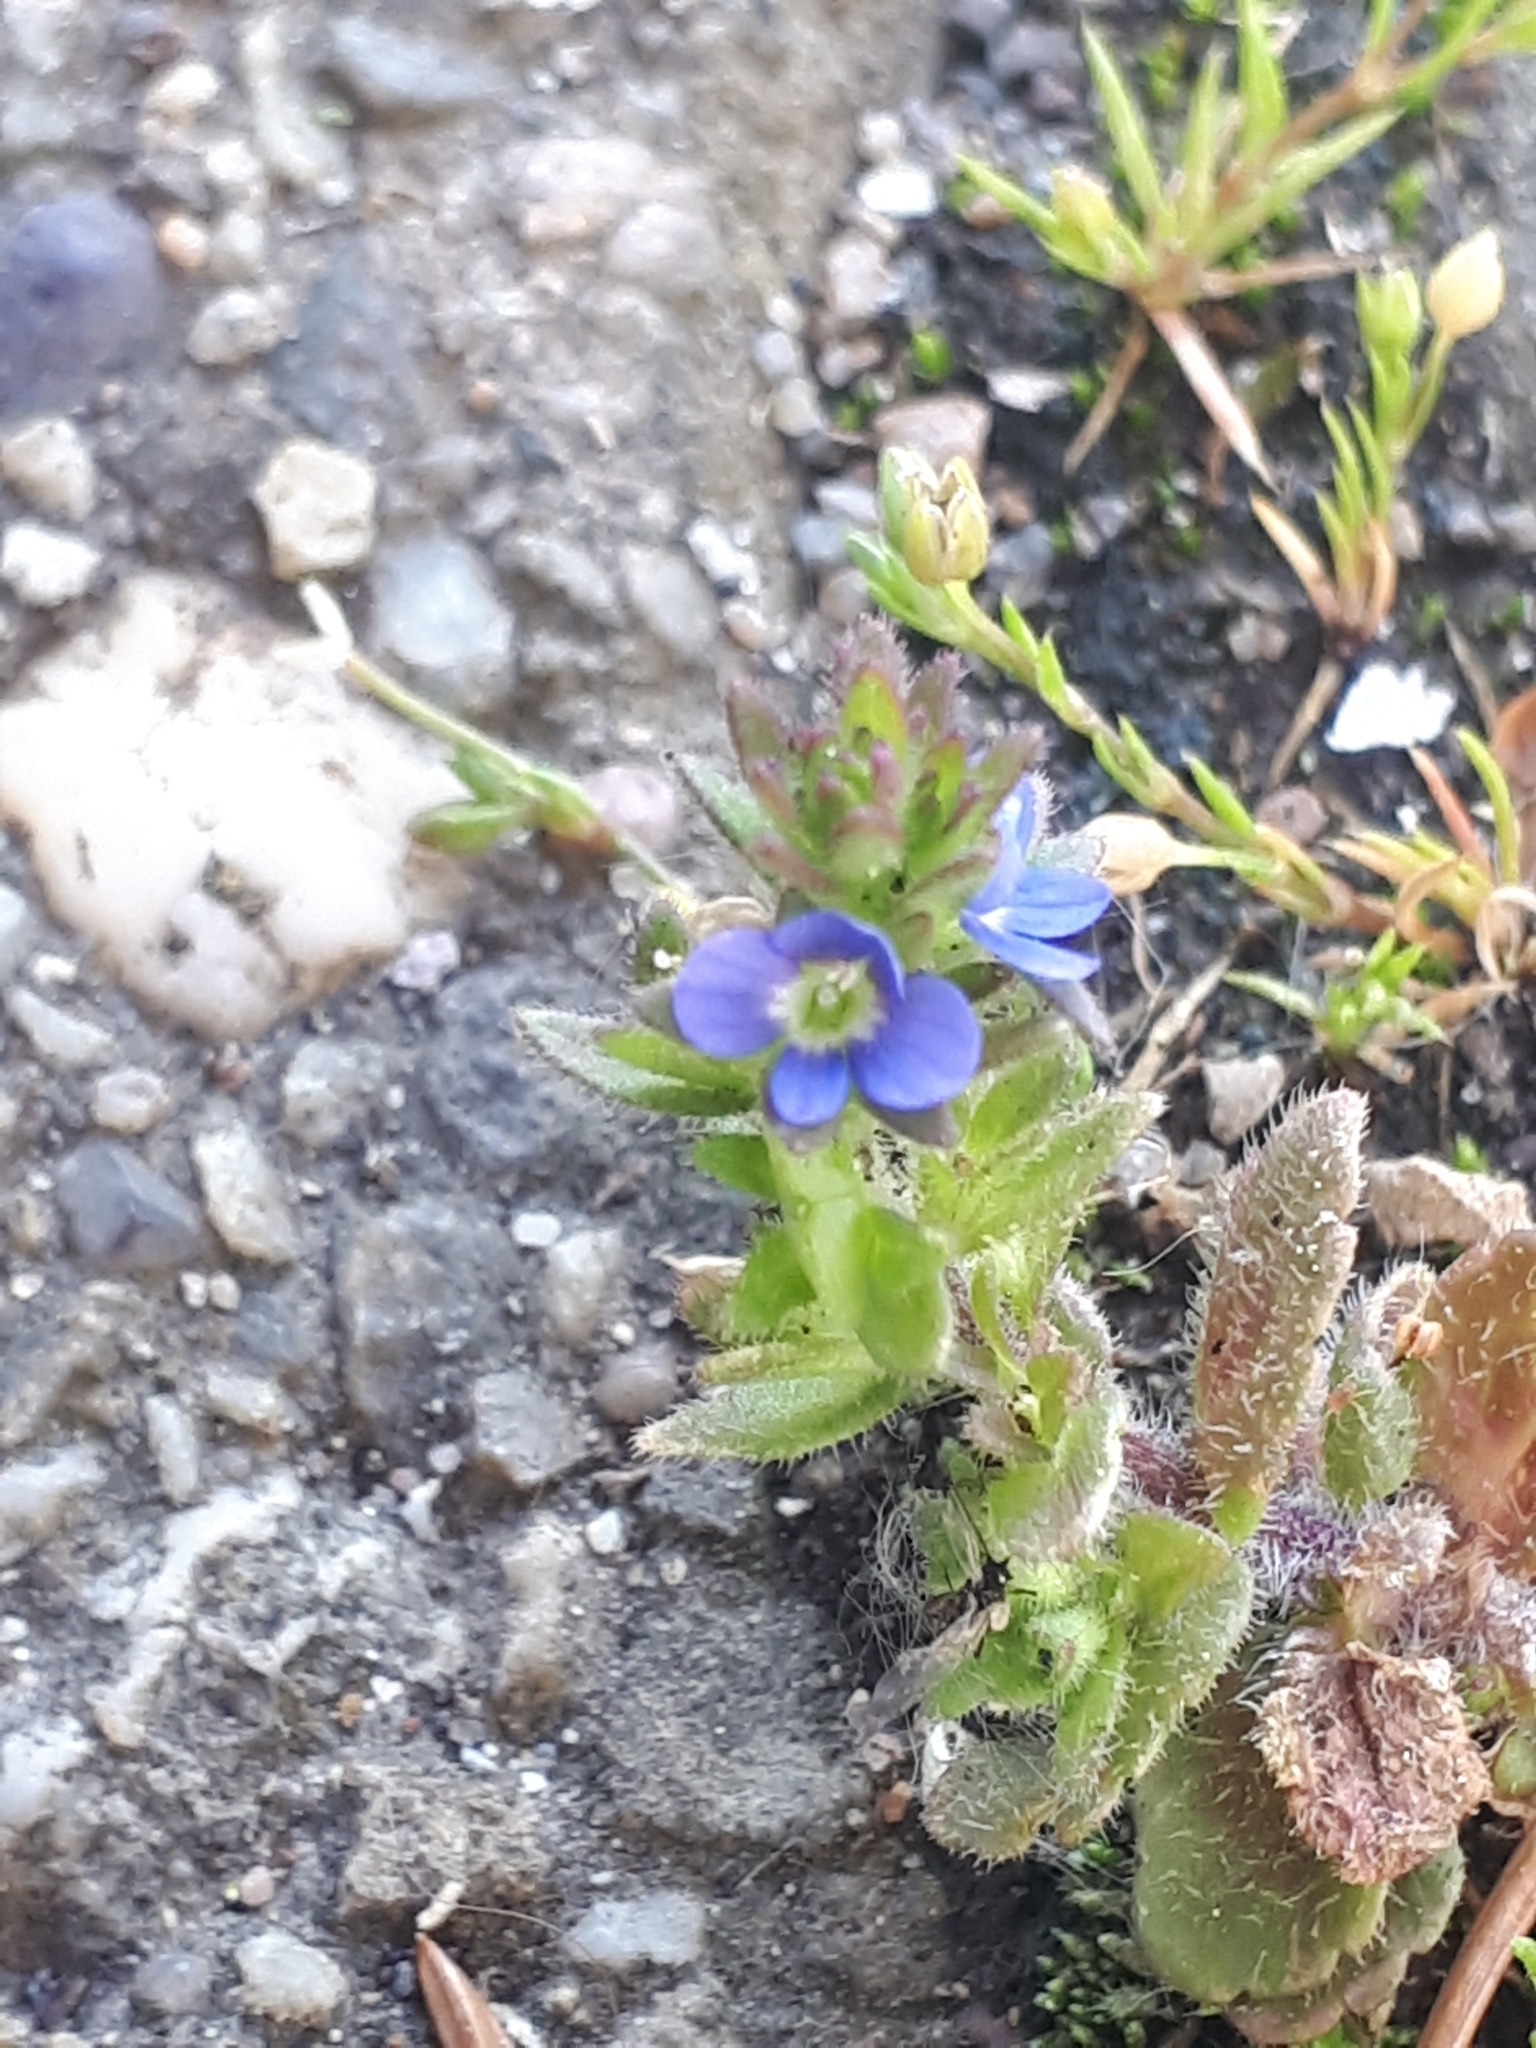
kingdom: Plantae
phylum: Tracheophyta
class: Magnoliopsida
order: Lamiales
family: Plantaginaceae
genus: Veronica
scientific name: Veronica arvensis
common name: Corn speedwell
